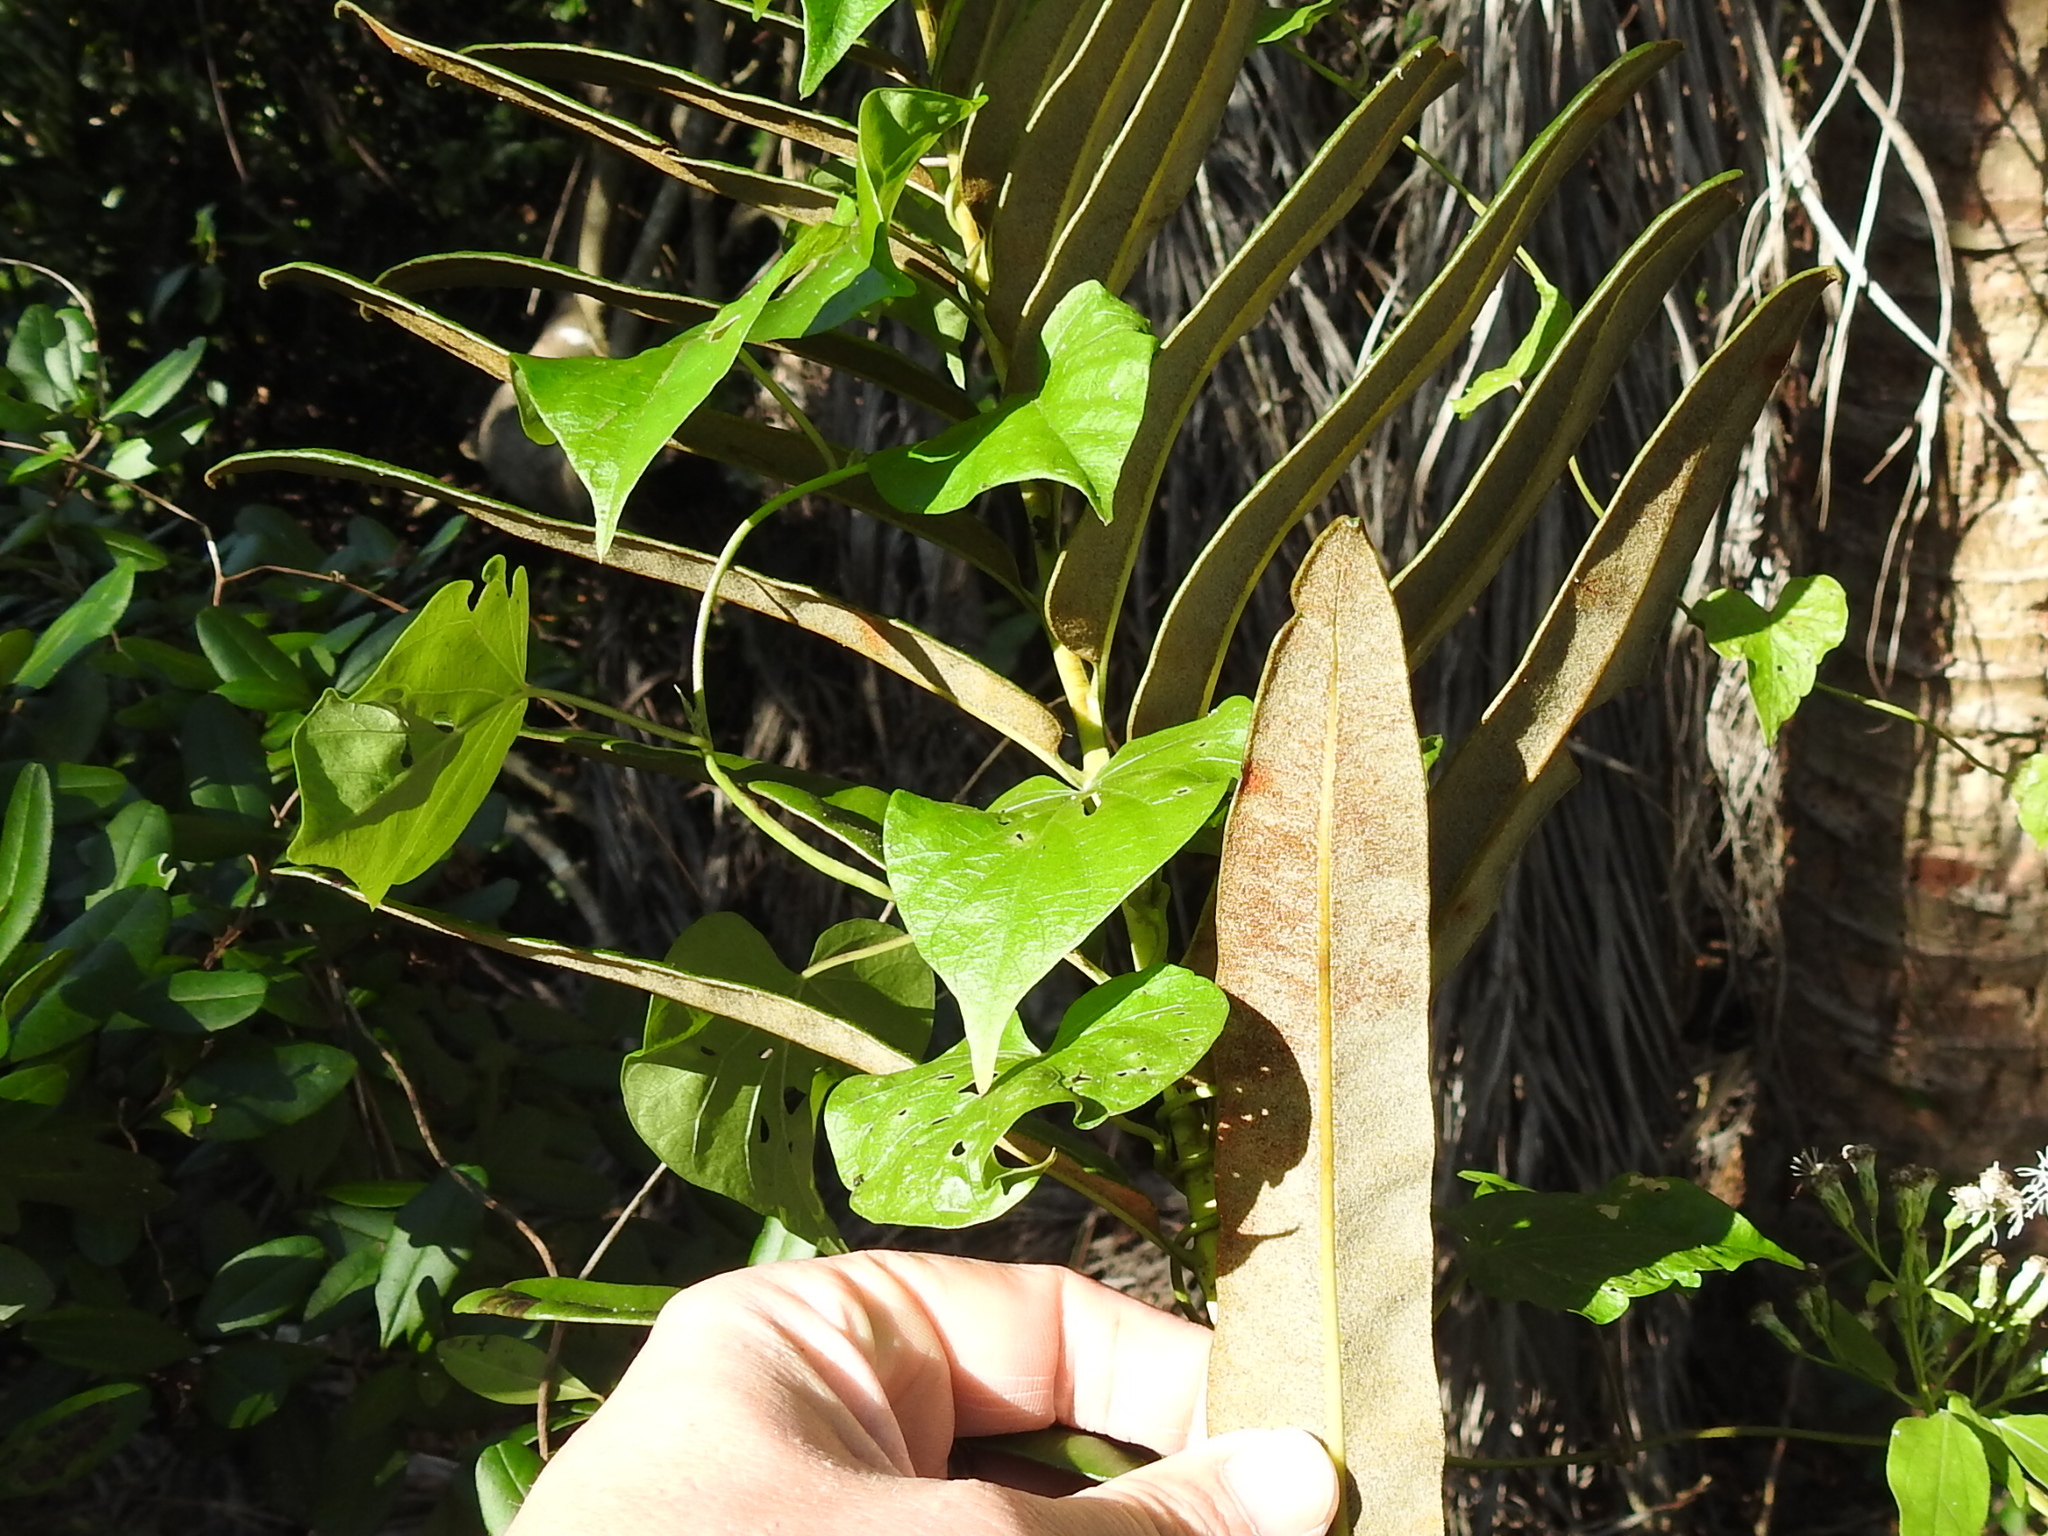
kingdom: Plantae
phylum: Tracheophyta
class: Polypodiopsida
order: Polypodiales
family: Pteridaceae
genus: Acrostichum
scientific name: Acrostichum danaeifolium
